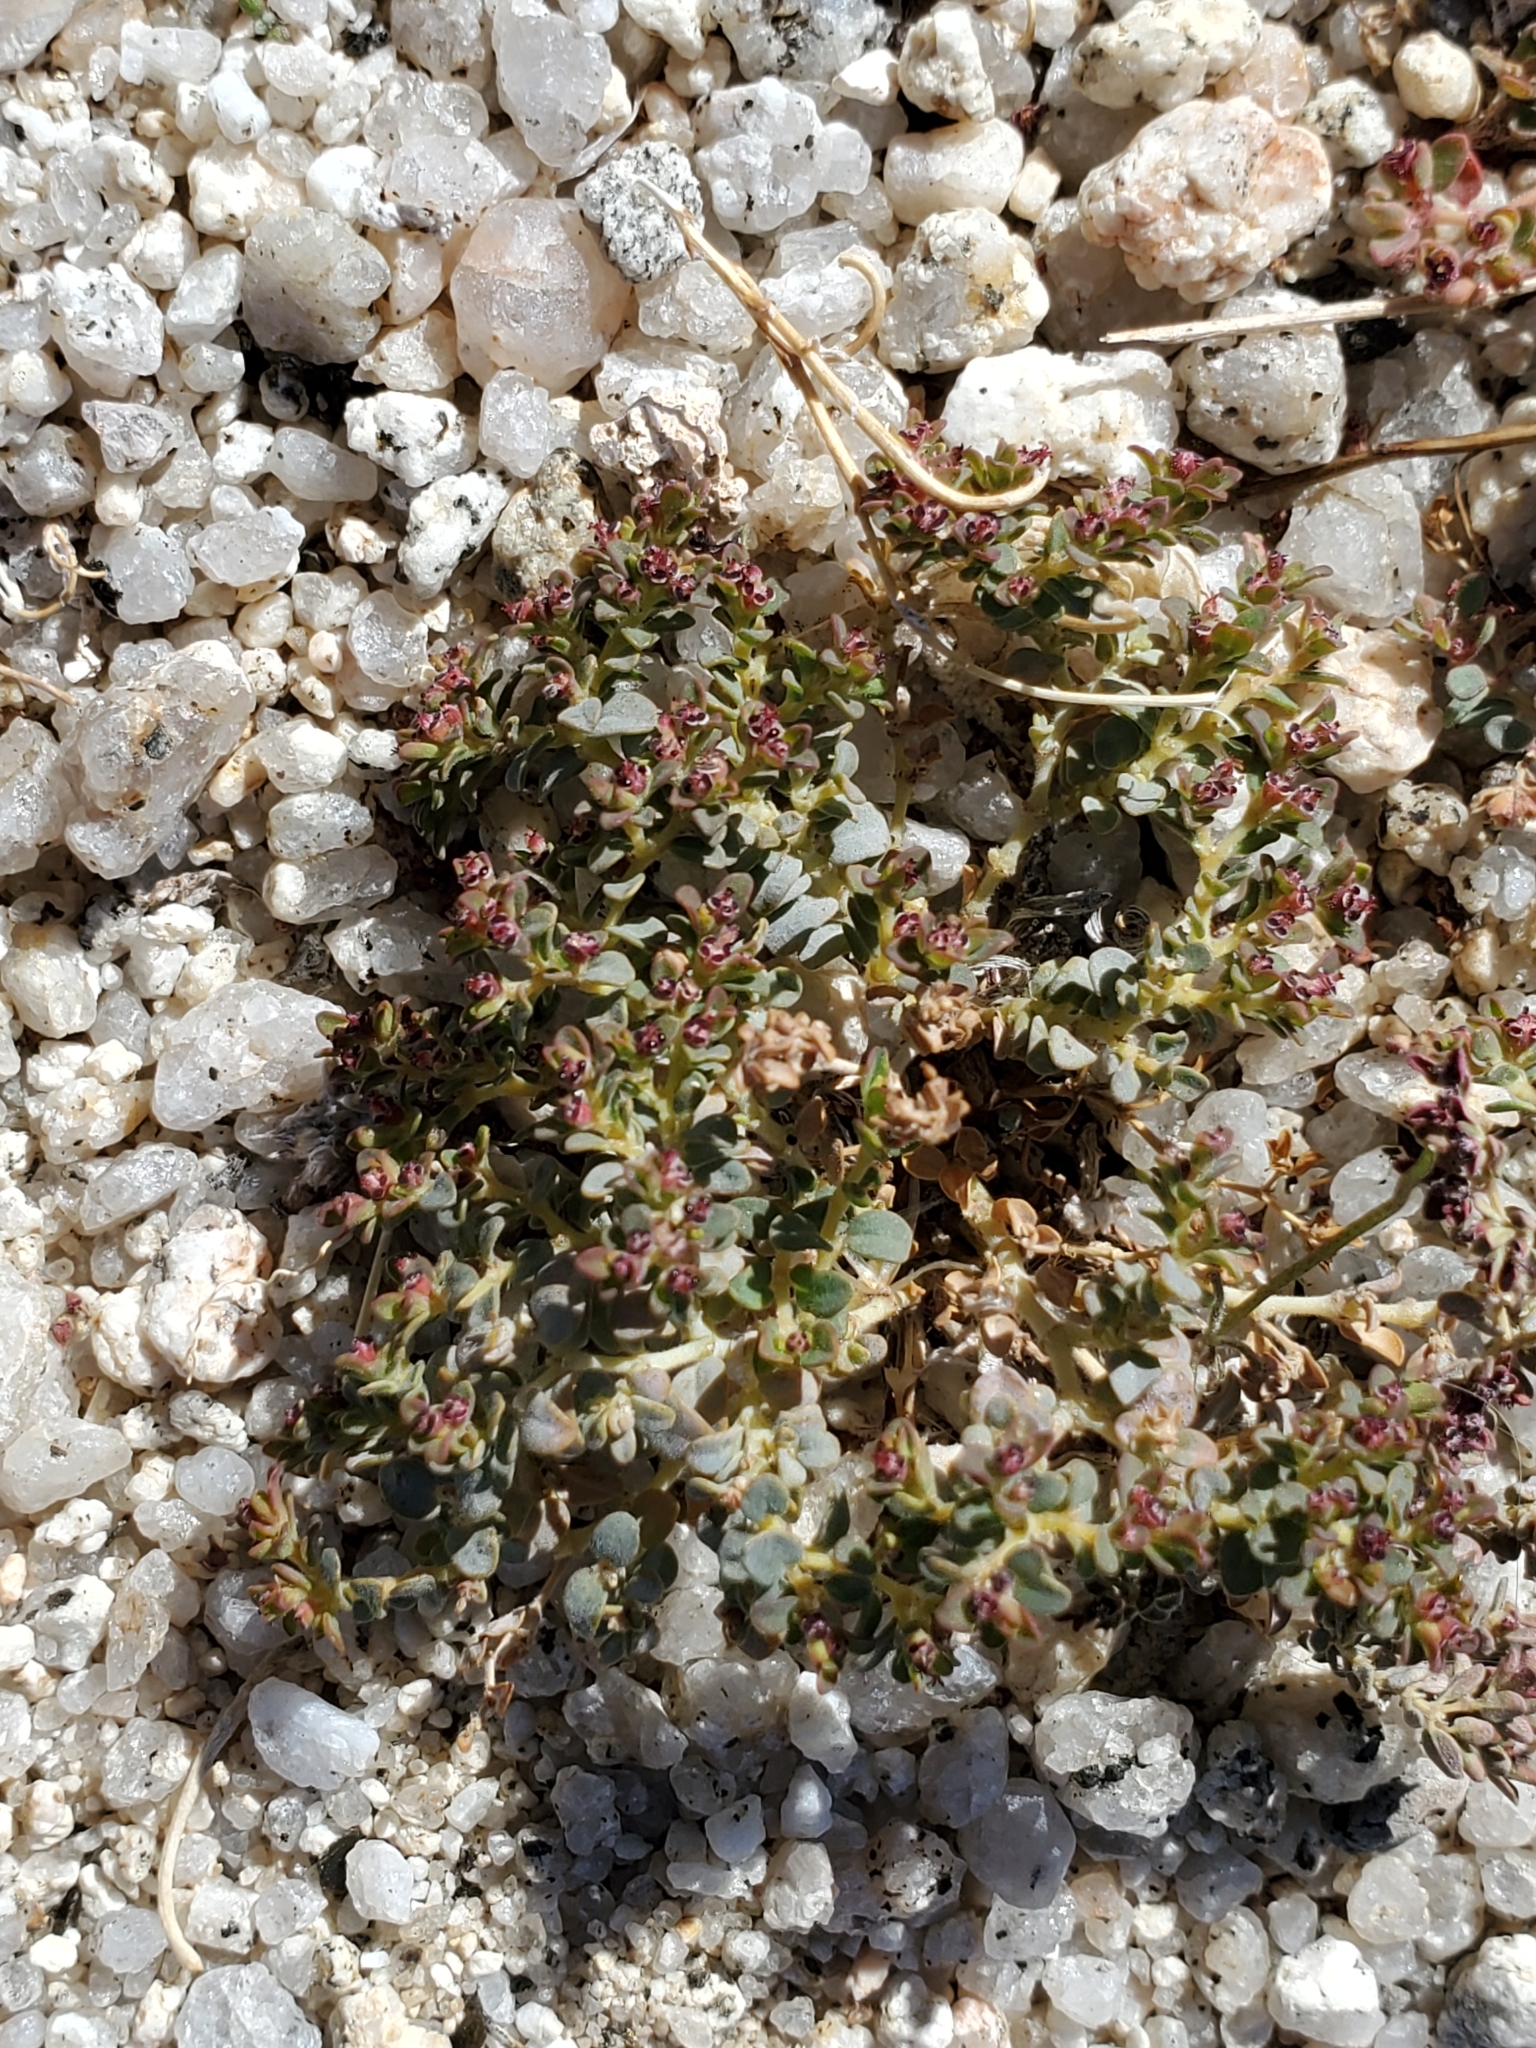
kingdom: Plantae
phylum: Tracheophyta
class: Magnoliopsida
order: Malpighiales
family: Euphorbiaceae
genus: Euphorbia
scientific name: Euphorbia polycarpa
